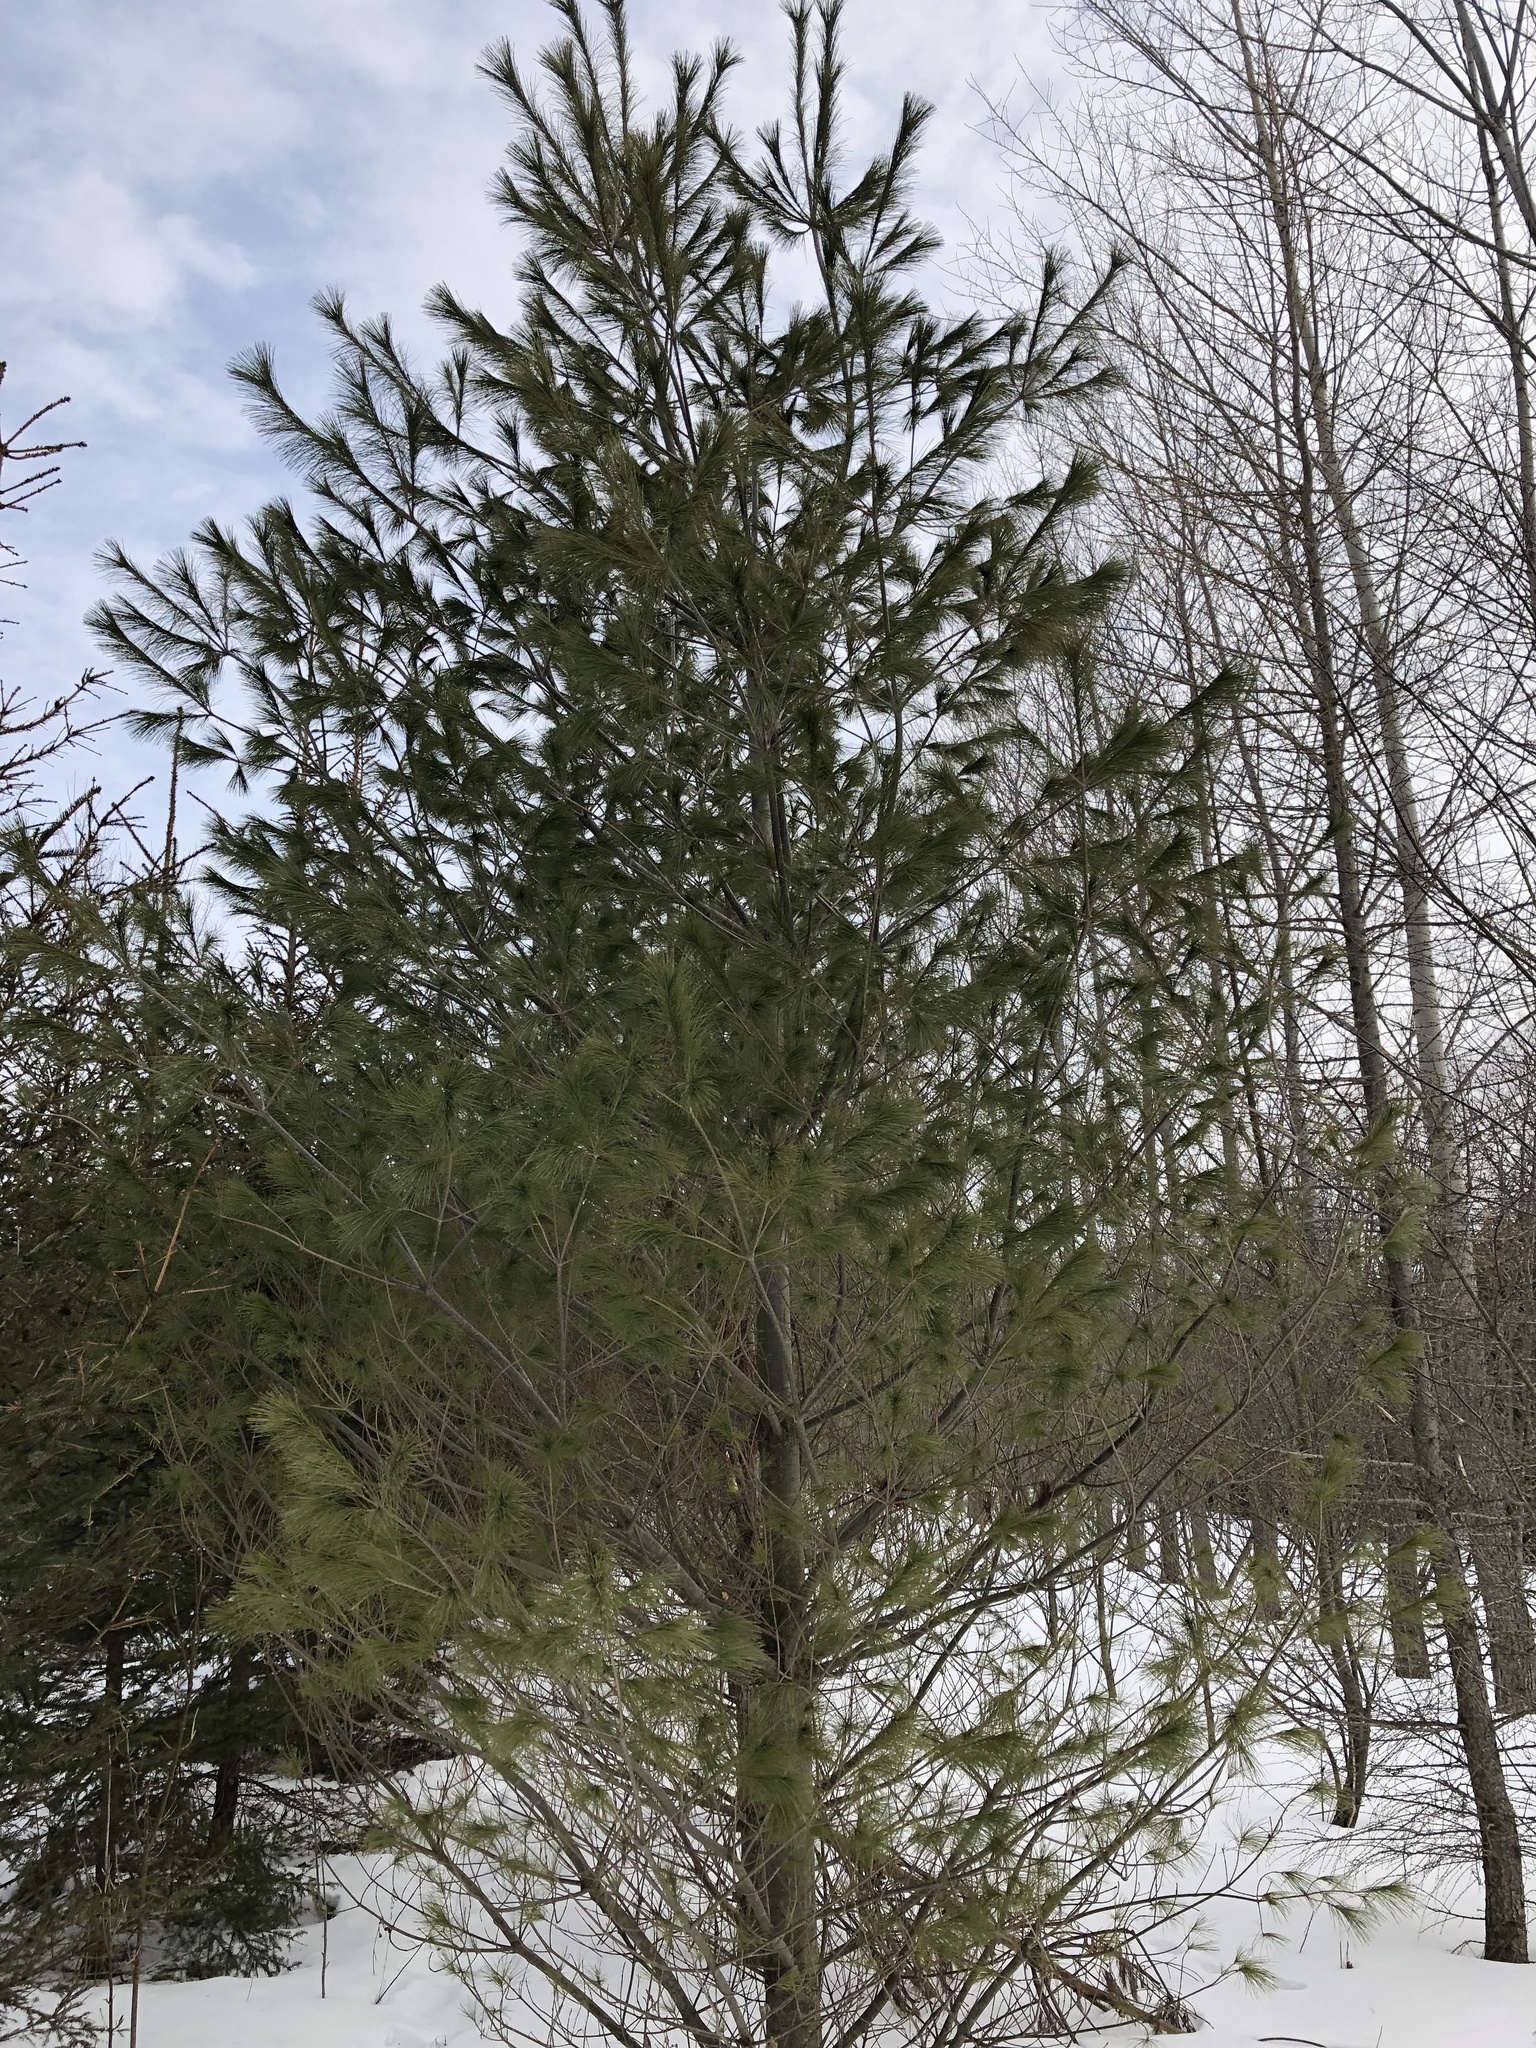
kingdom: Plantae
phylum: Tracheophyta
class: Pinopsida
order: Pinales
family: Pinaceae
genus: Pinus
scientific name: Pinus strobus
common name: Weymouth pine
